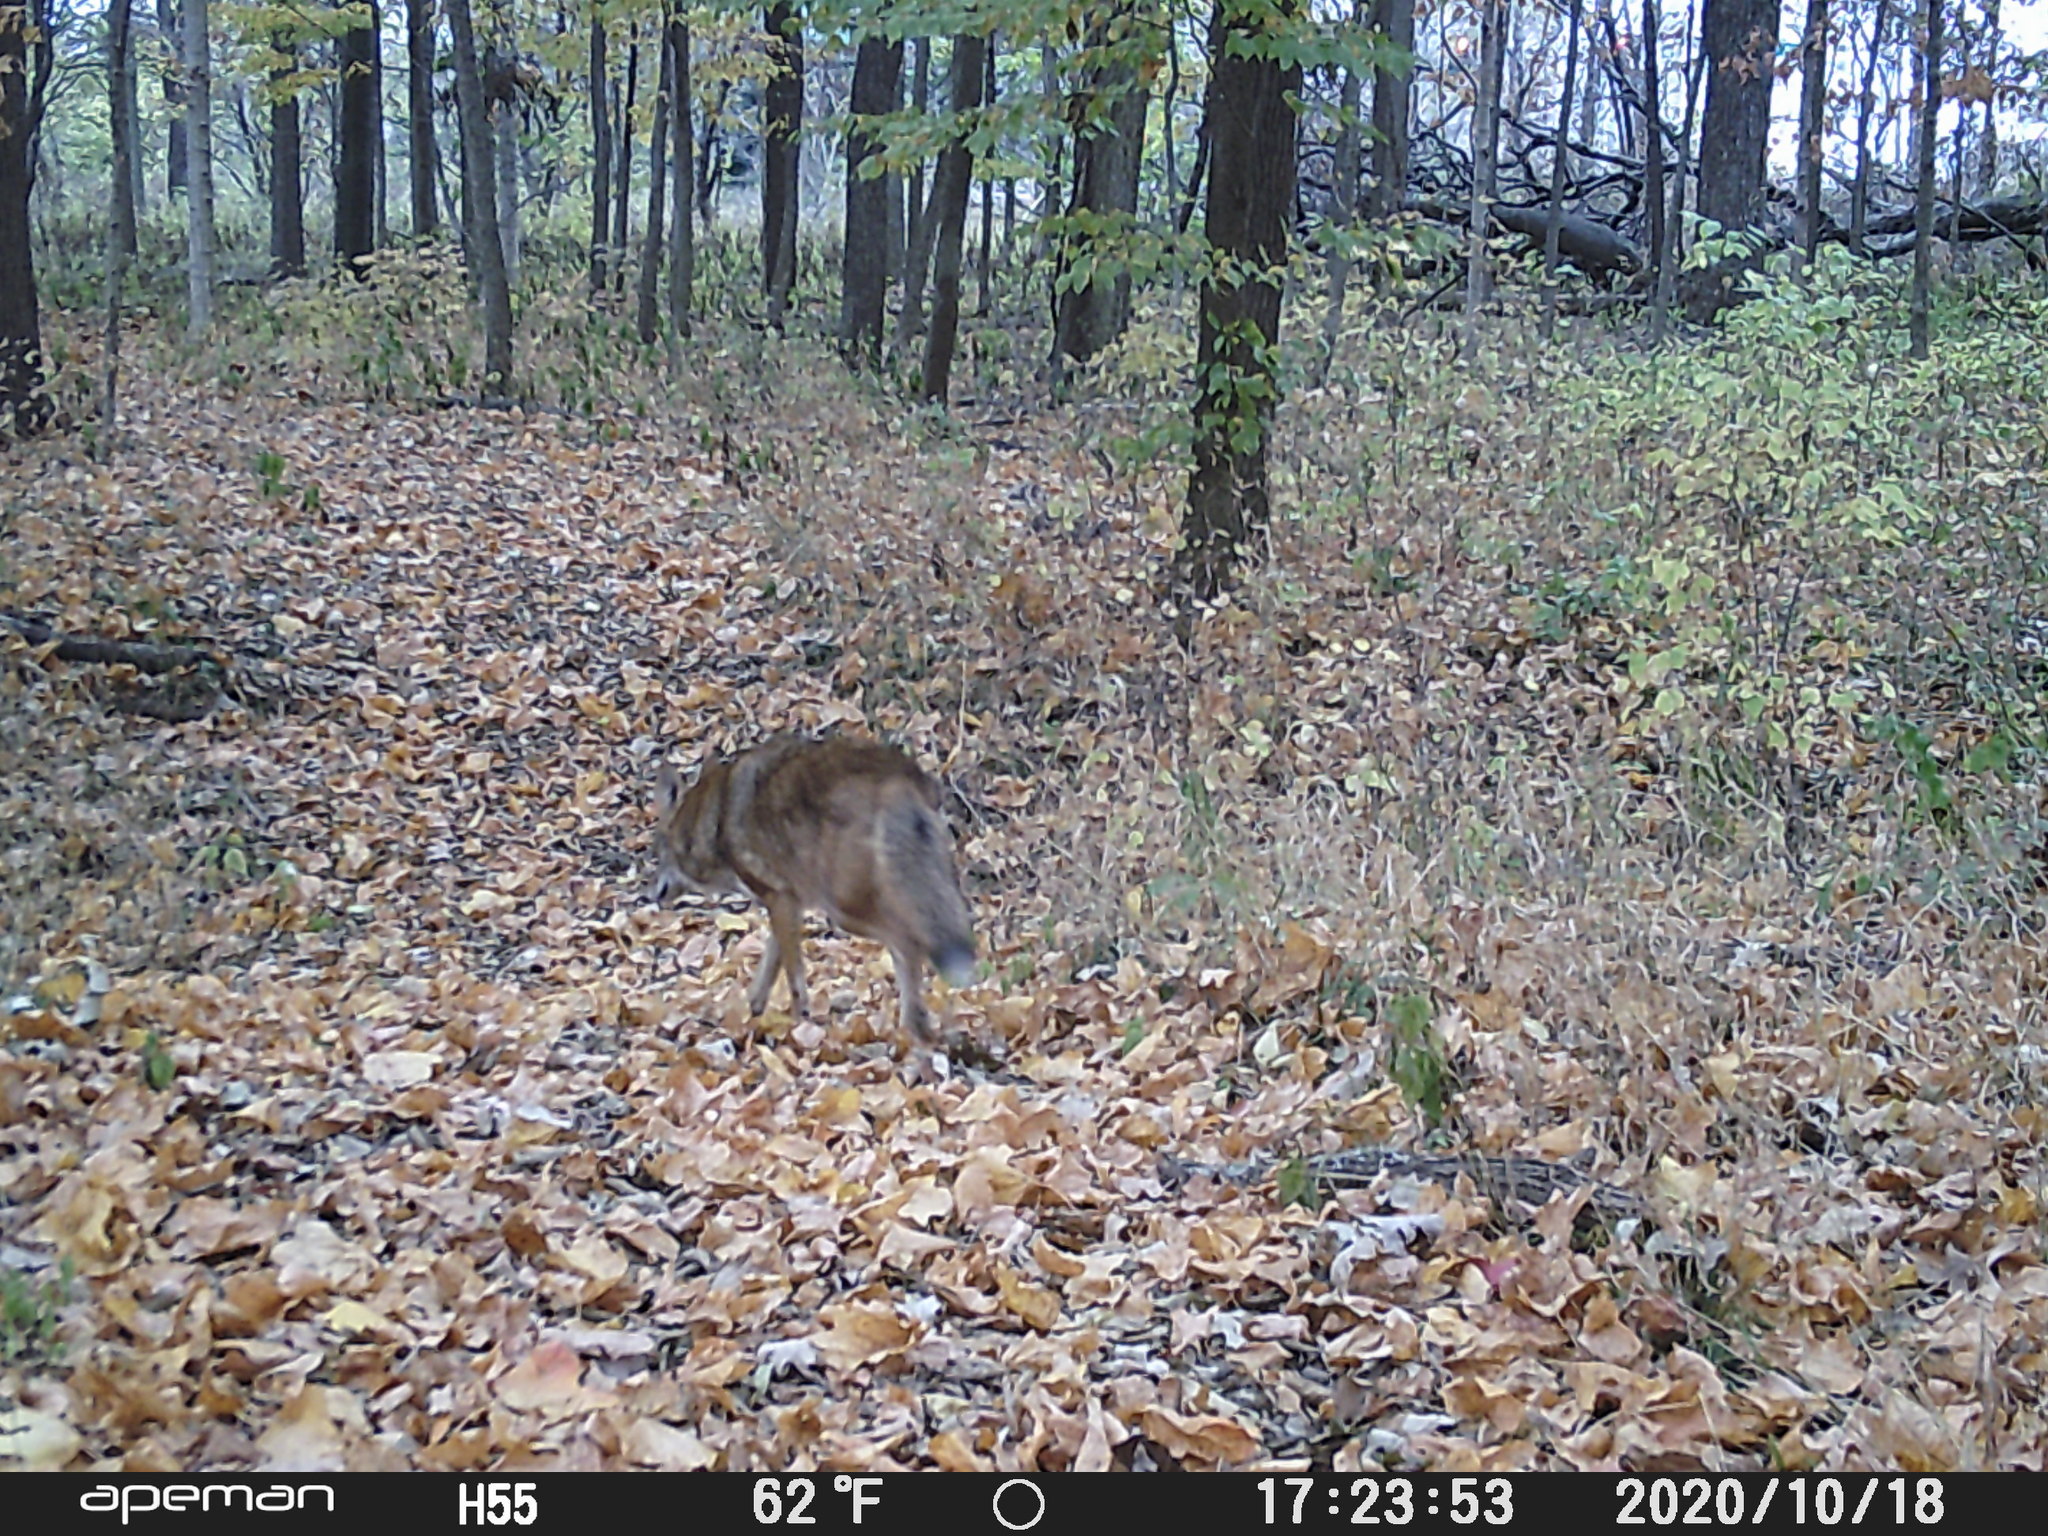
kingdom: Animalia
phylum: Chordata
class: Mammalia
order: Carnivora
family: Canidae
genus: Canis
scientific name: Canis latrans
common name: Coyote
